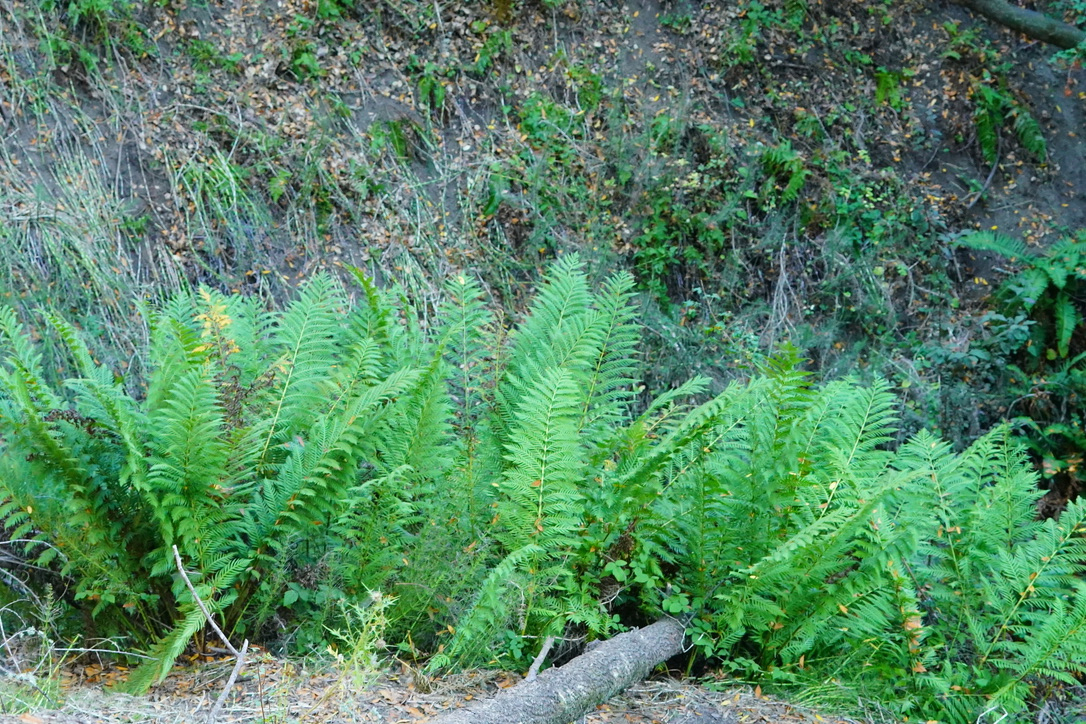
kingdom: Plantae
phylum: Tracheophyta
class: Polypodiopsida
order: Polypodiales
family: Blechnaceae
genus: Woodwardia
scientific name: Woodwardia fimbriata
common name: Giant chain fern
